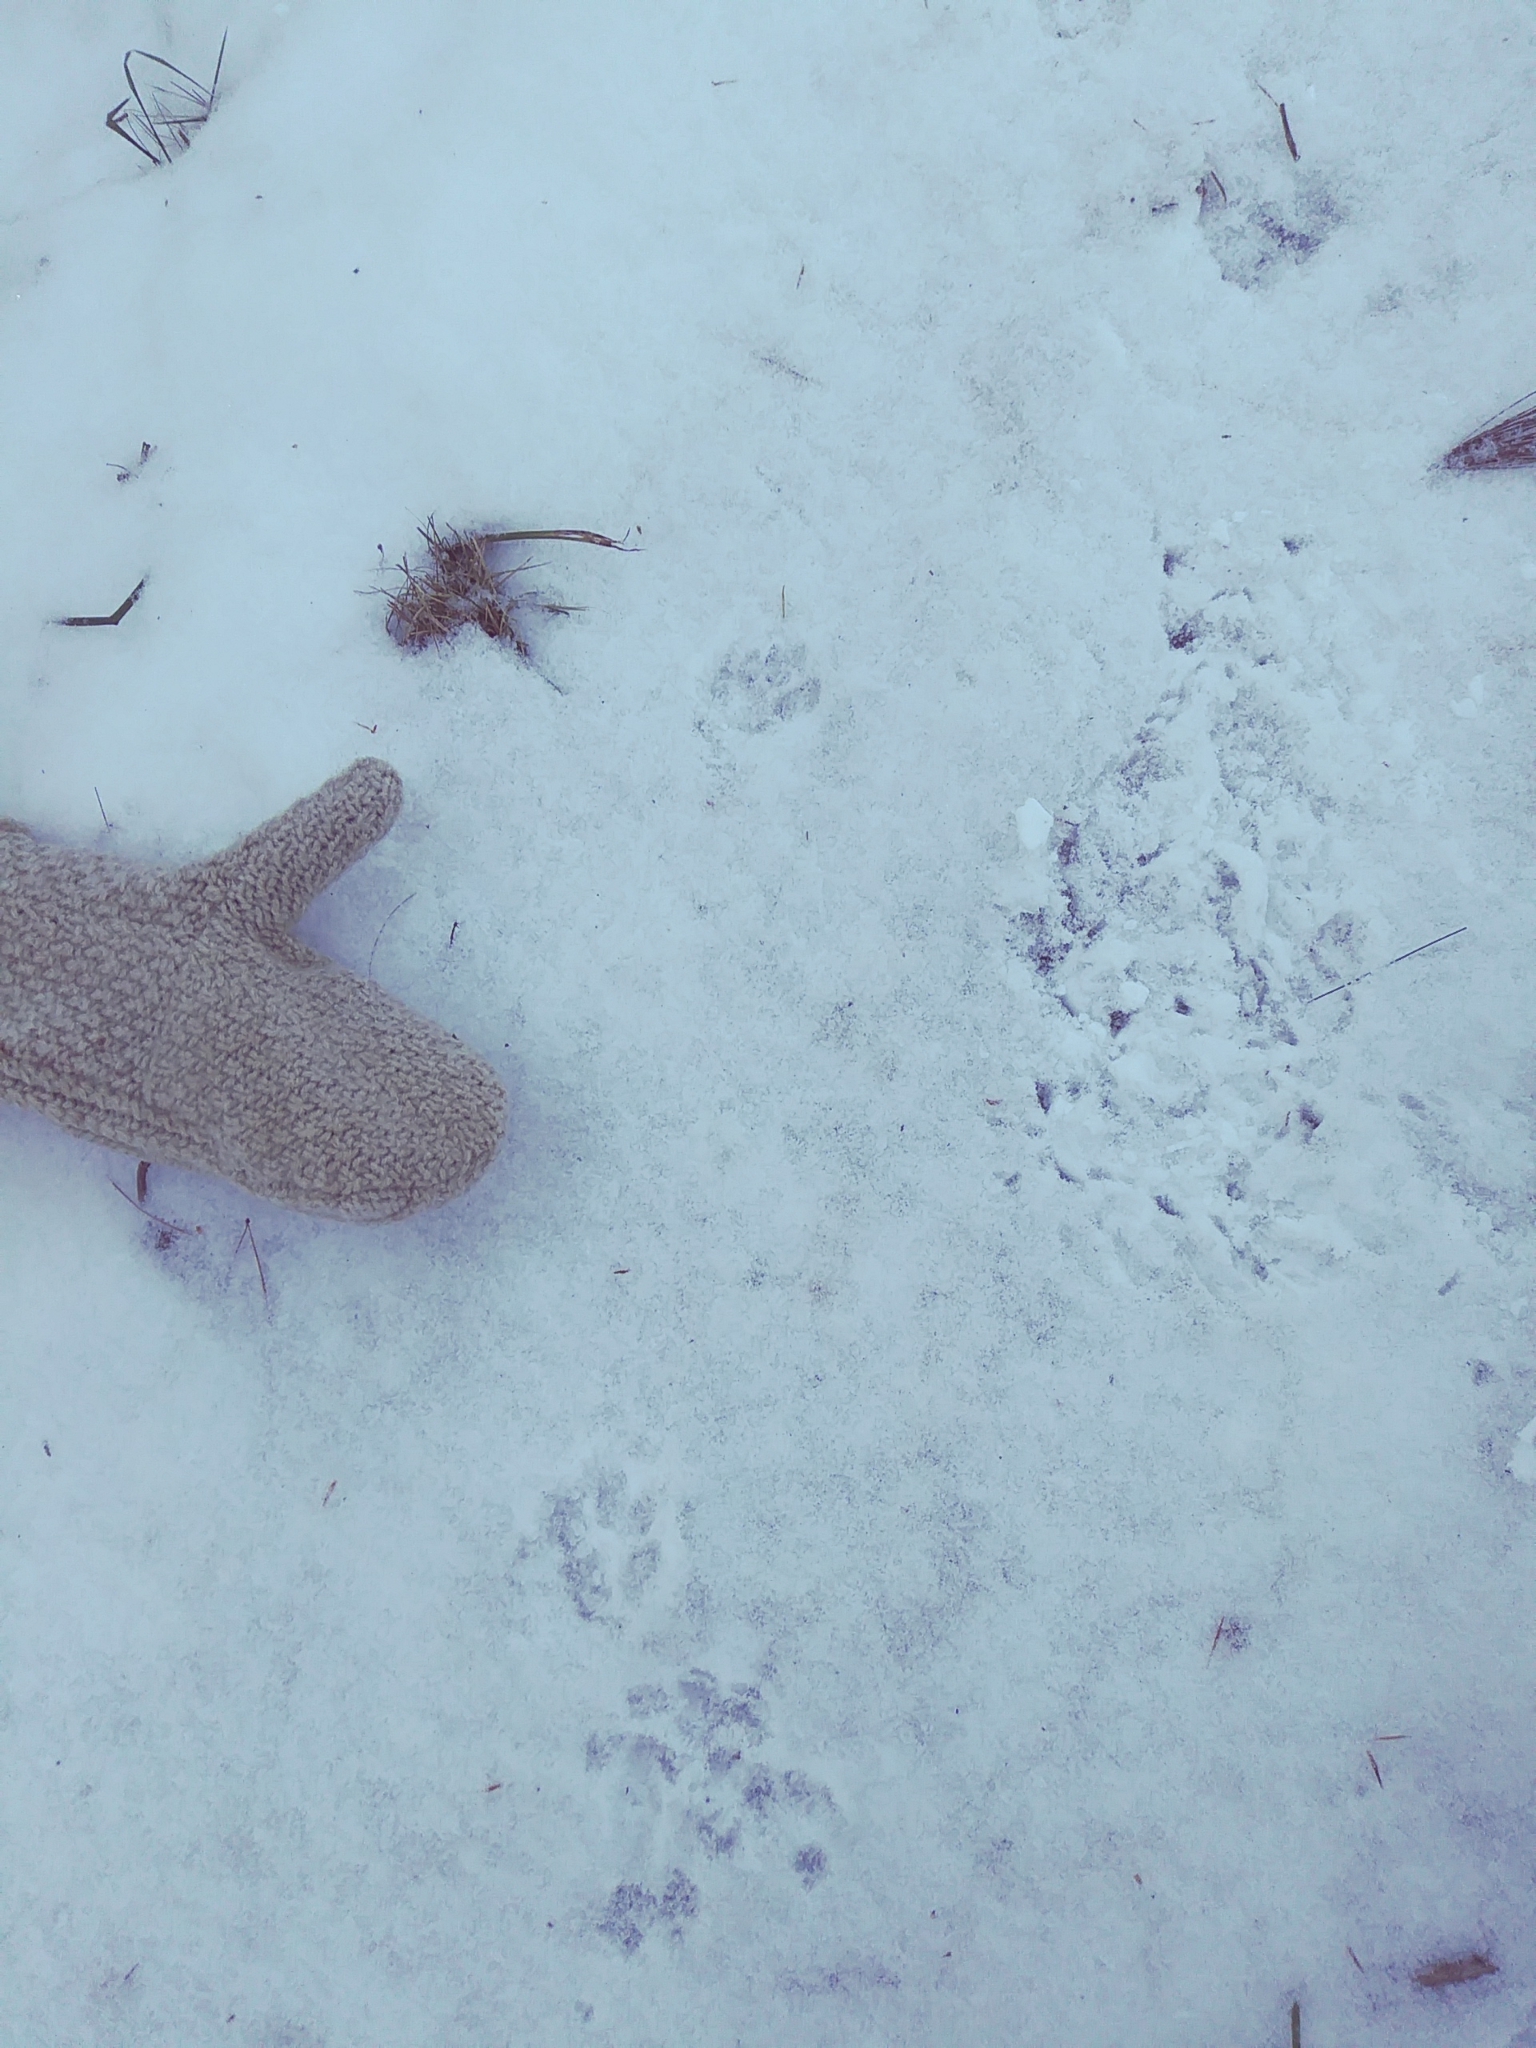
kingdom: Animalia
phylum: Chordata
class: Mammalia
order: Carnivora
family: Canidae
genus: Urocyon
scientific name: Urocyon cinereoargenteus
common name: Gray fox
